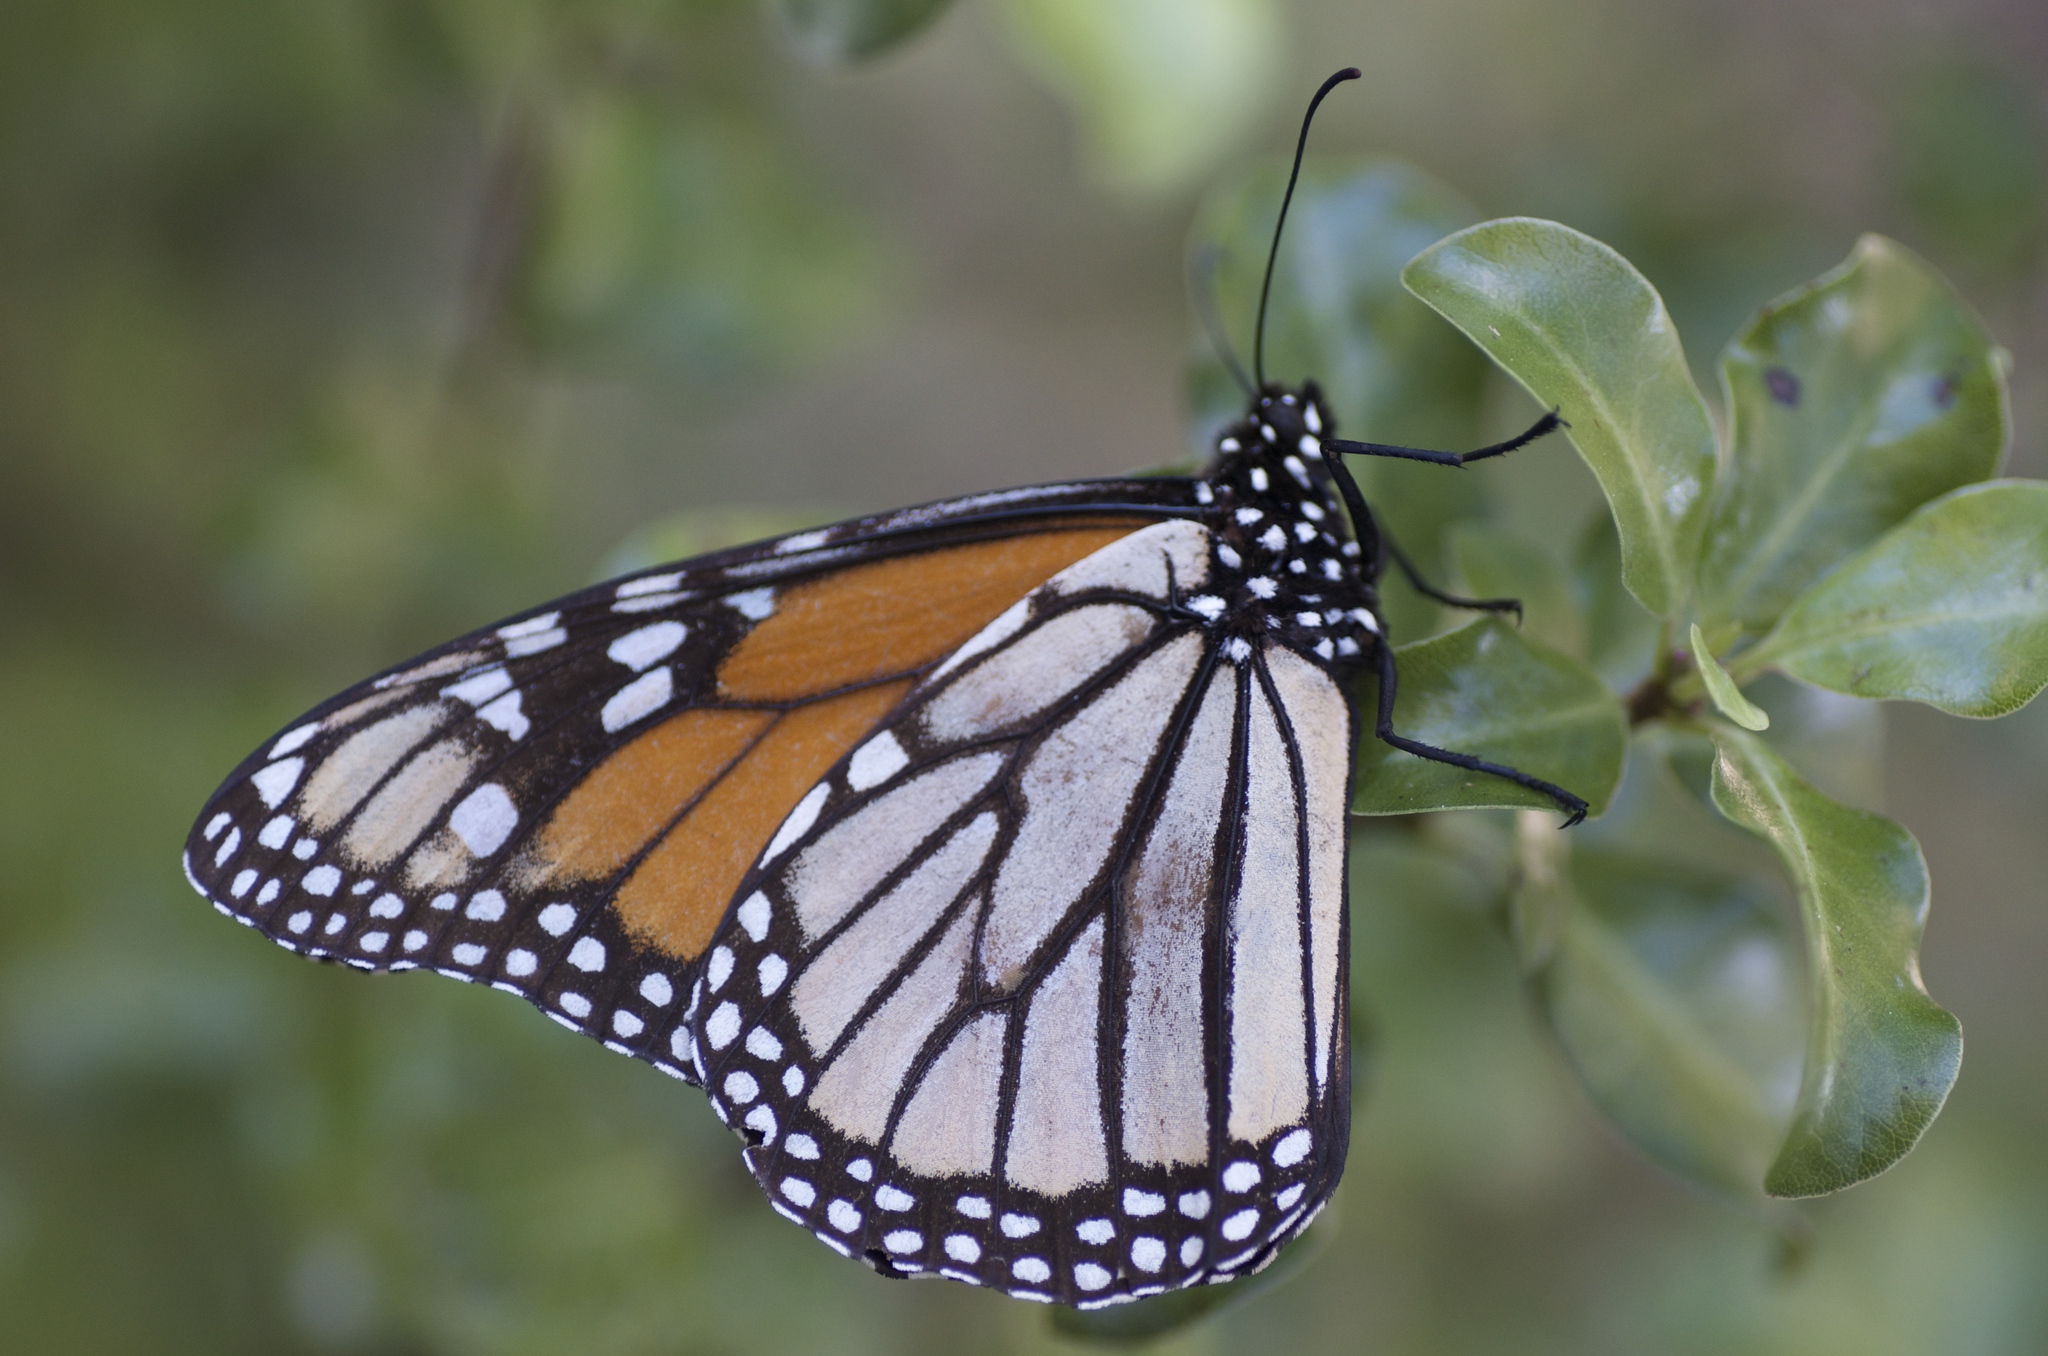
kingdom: Animalia
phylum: Arthropoda
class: Insecta
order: Lepidoptera
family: Nymphalidae
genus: Danaus
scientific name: Danaus plexippus
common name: Monarch
